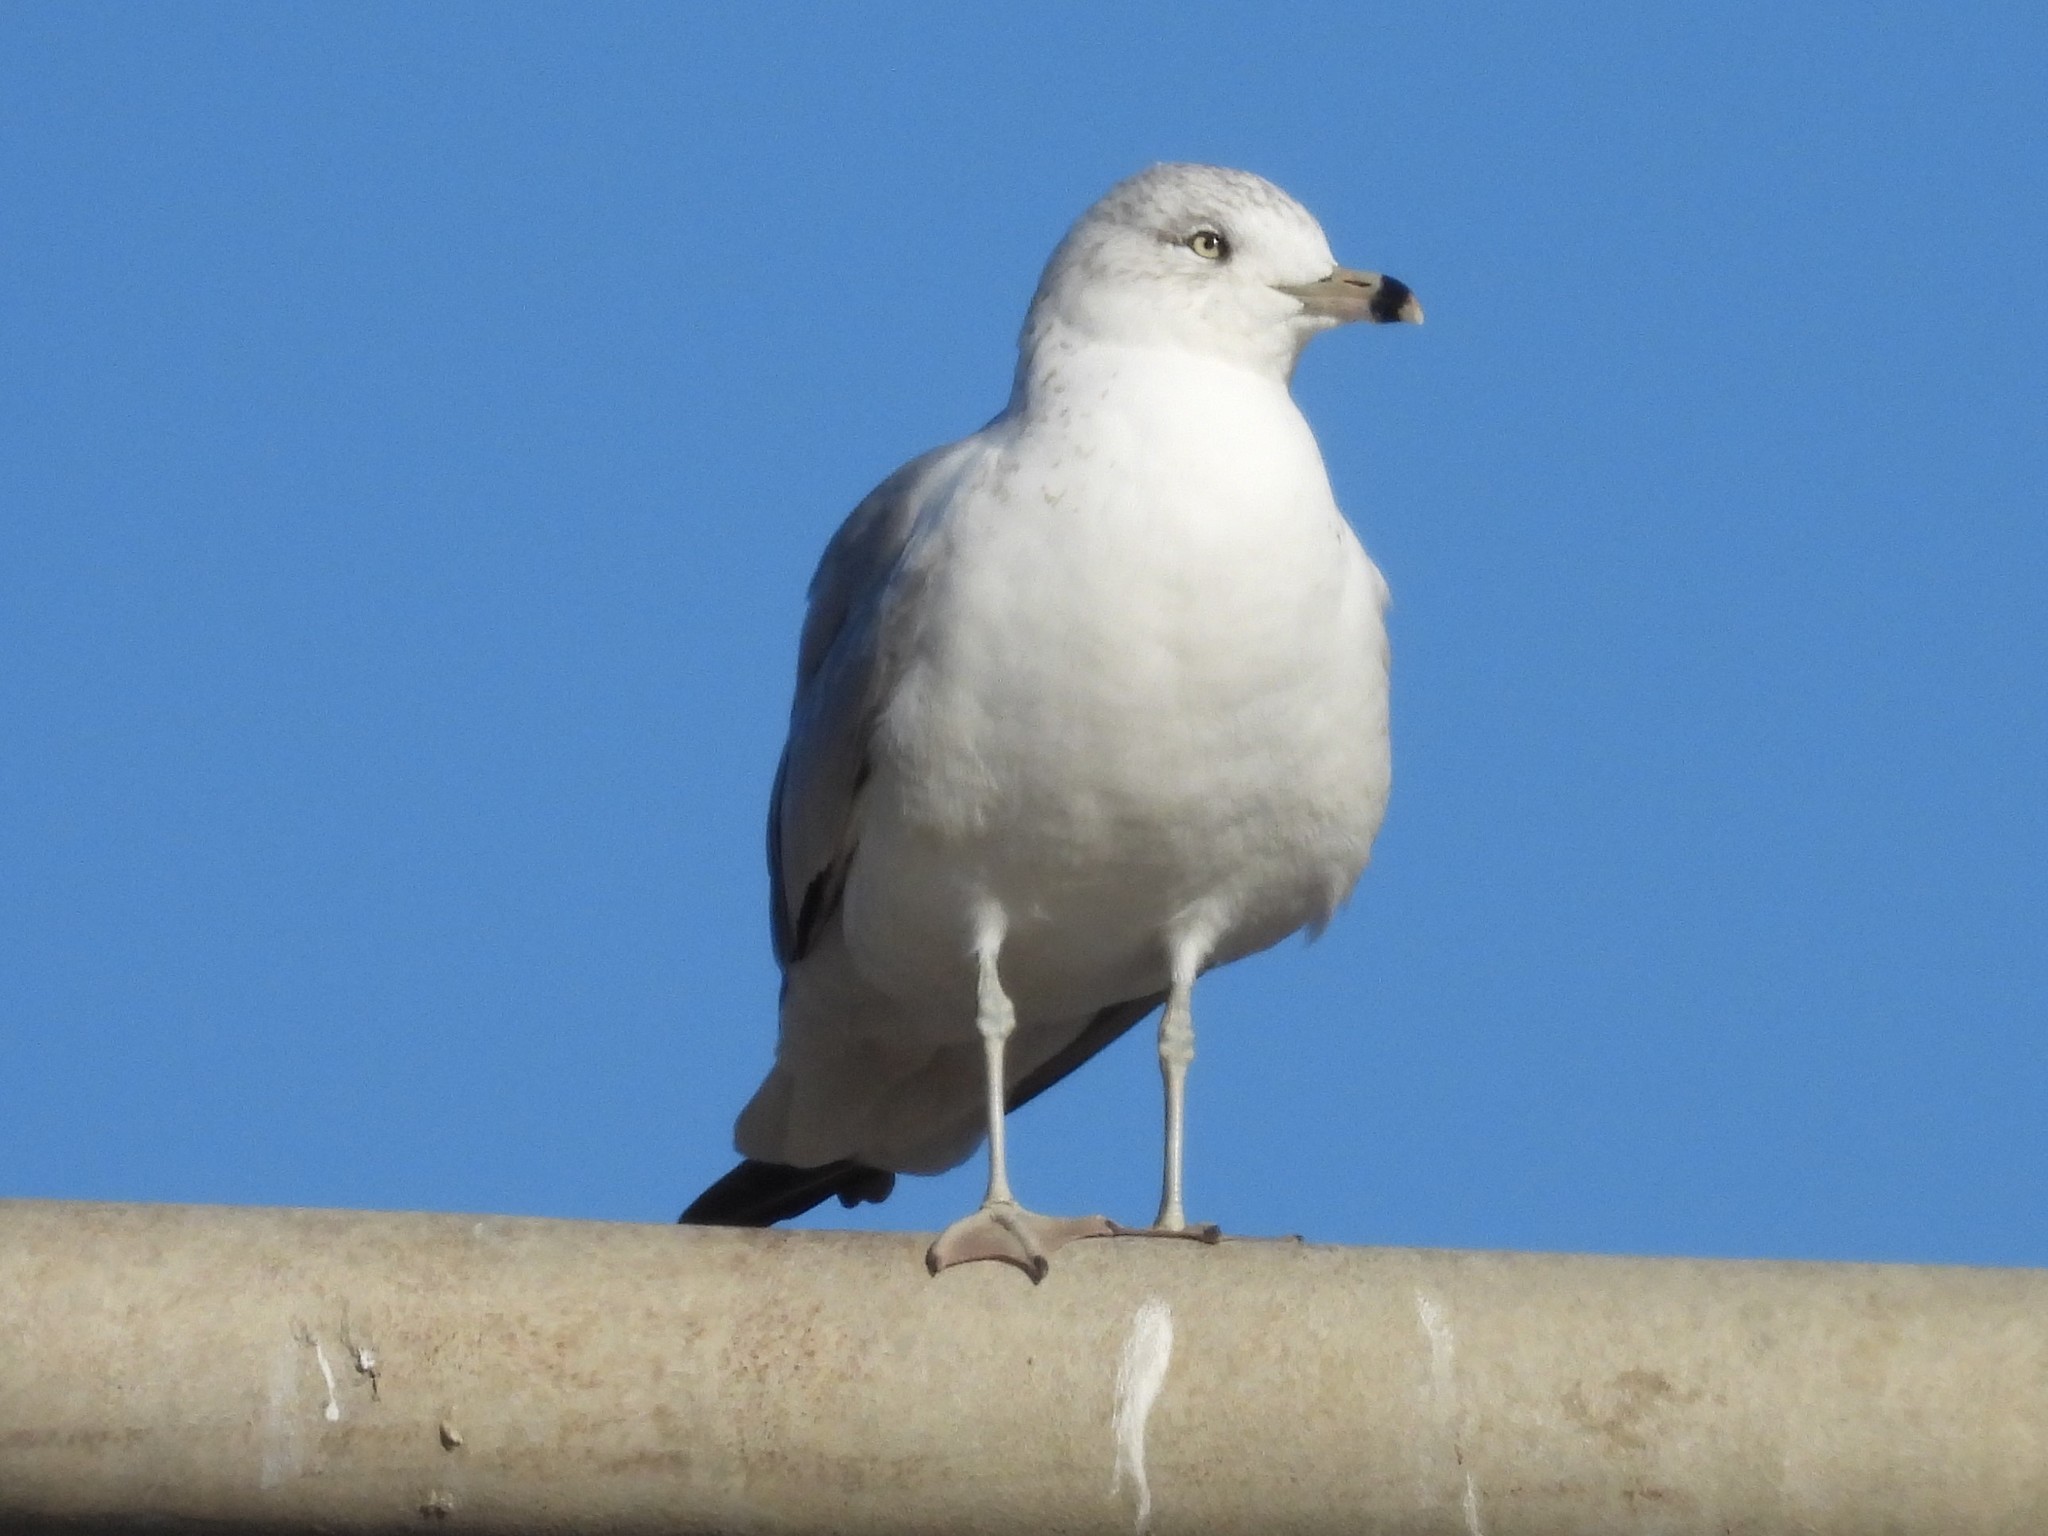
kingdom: Animalia
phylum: Chordata
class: Aves
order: Charadriiformes
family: Laridae
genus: Larus
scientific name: Larus delawarensis
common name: Ring-billed gull
